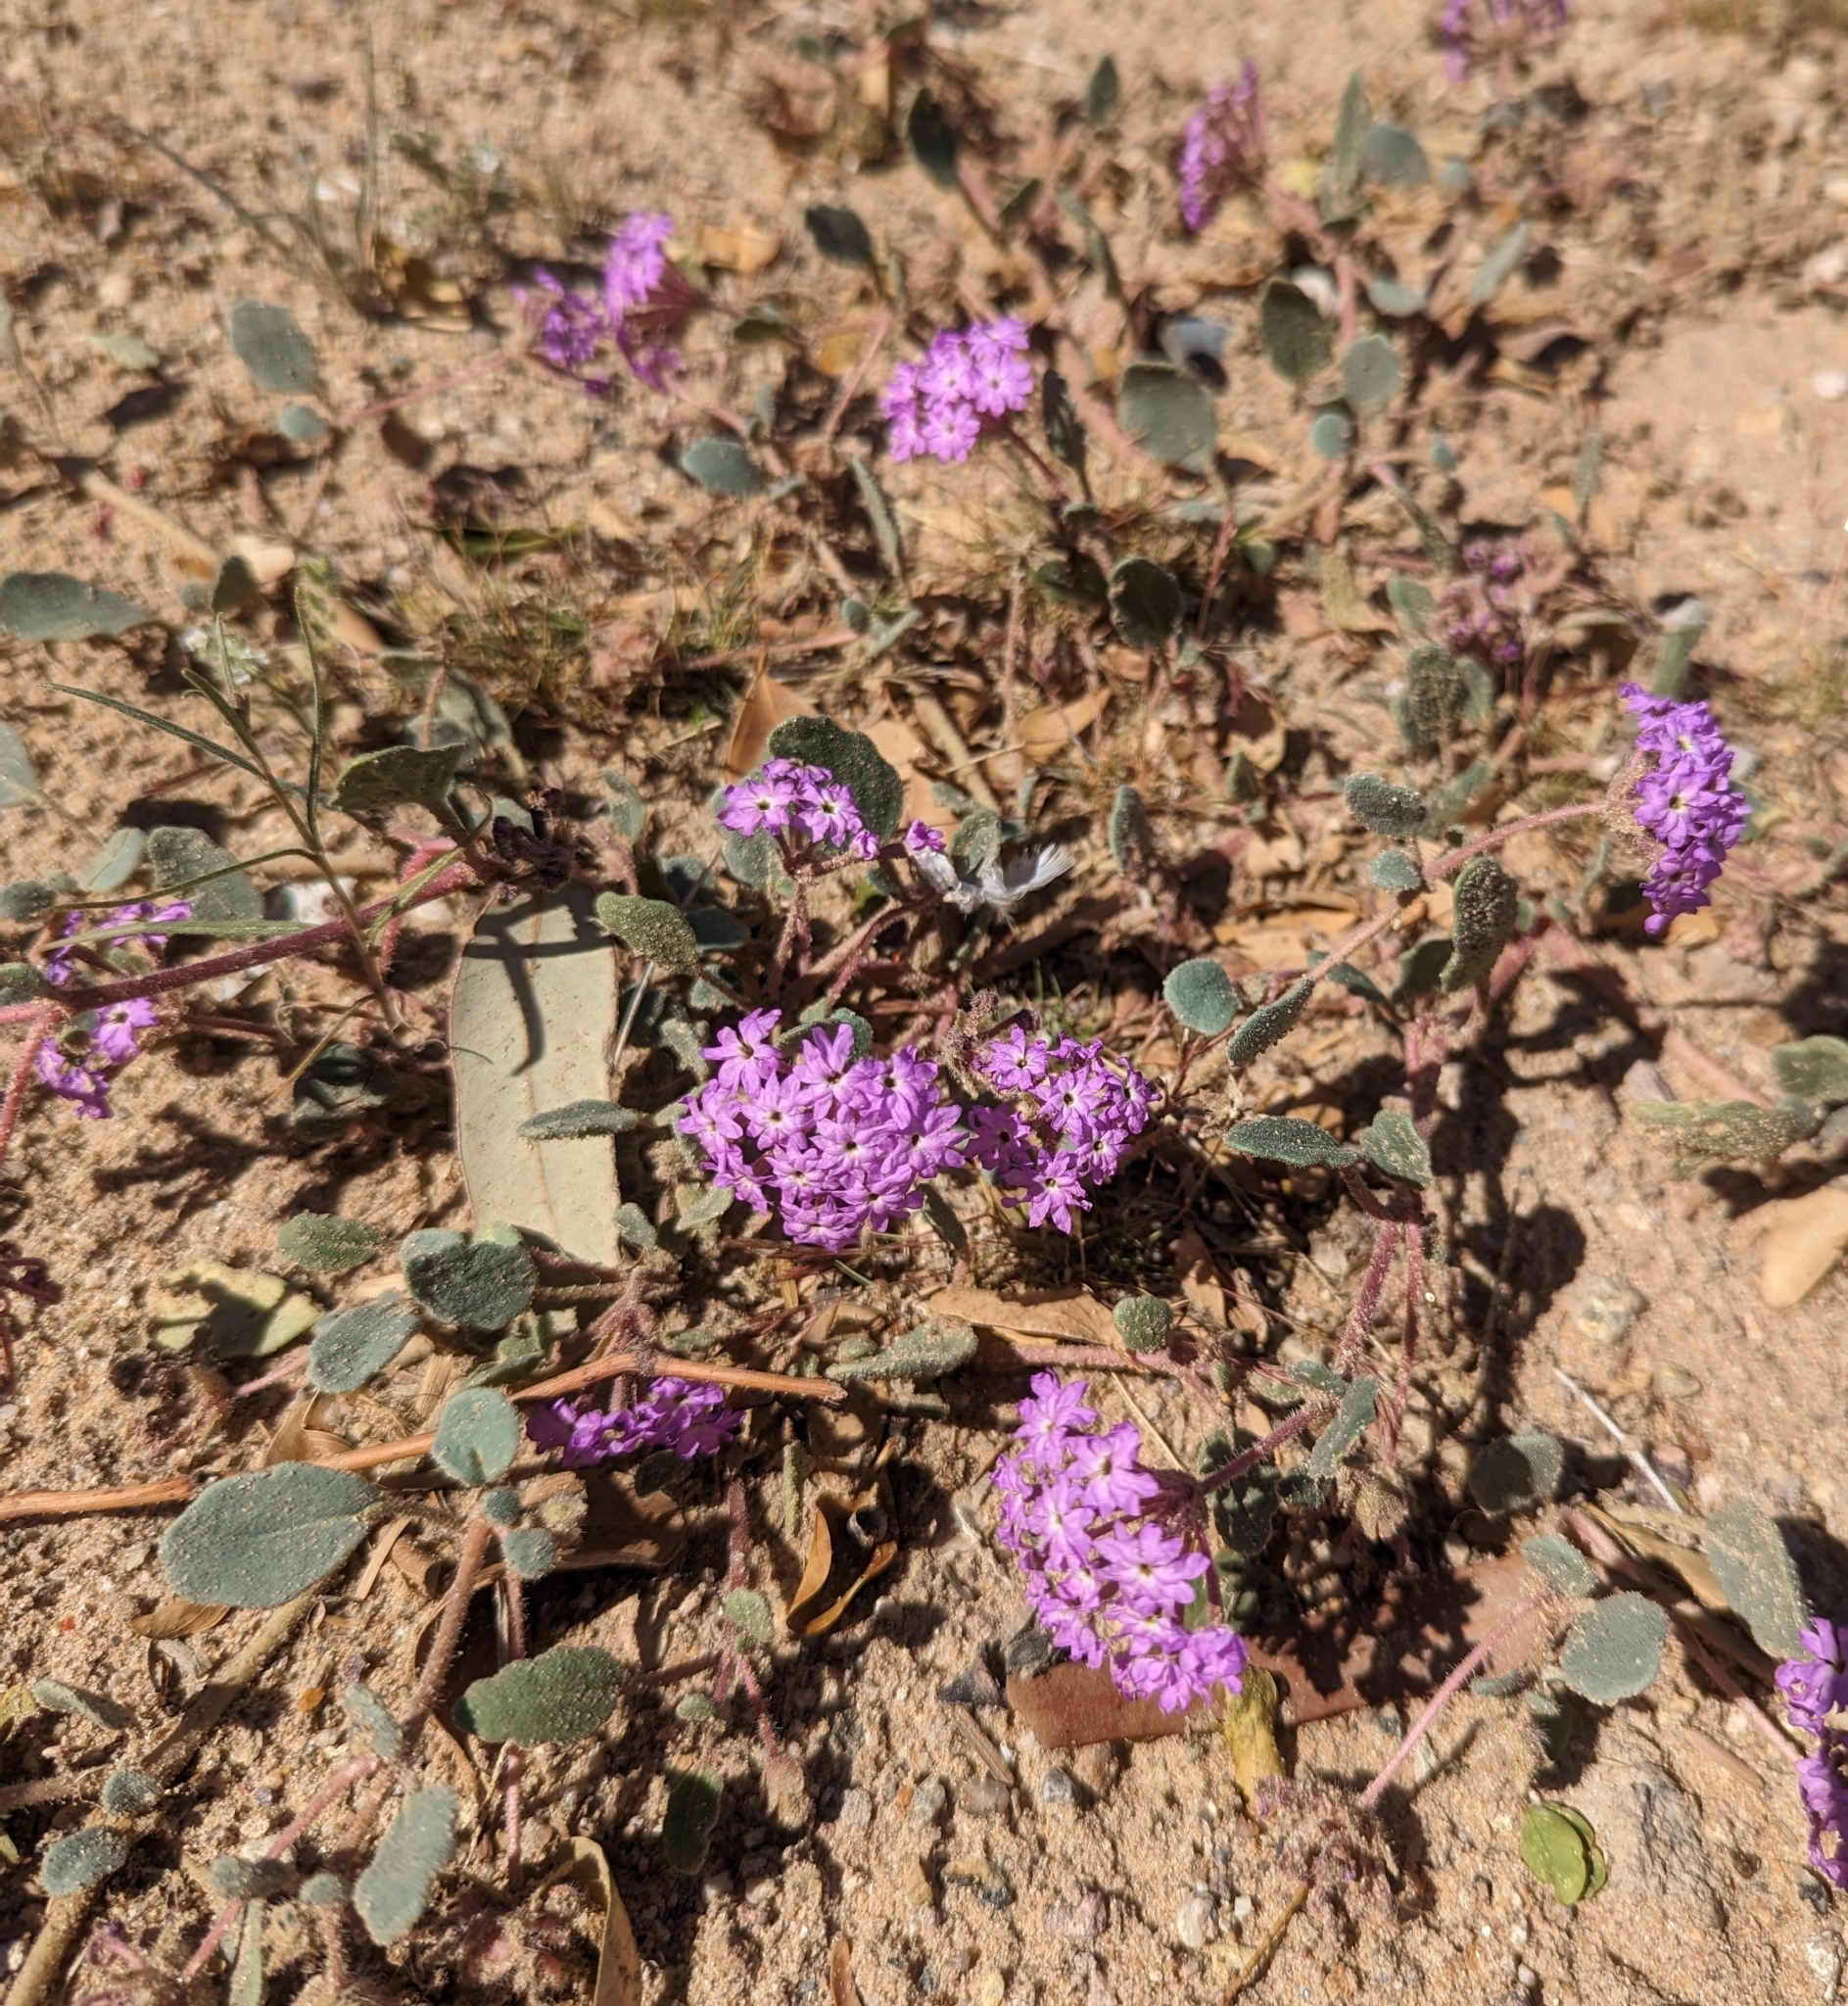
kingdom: Plantae
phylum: Tracheophyta
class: Magnoliopsida
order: Caryophyllales
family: Nyctaginaceae
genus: Abronia
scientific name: Abronia villosa
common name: Desert sand-verbena
